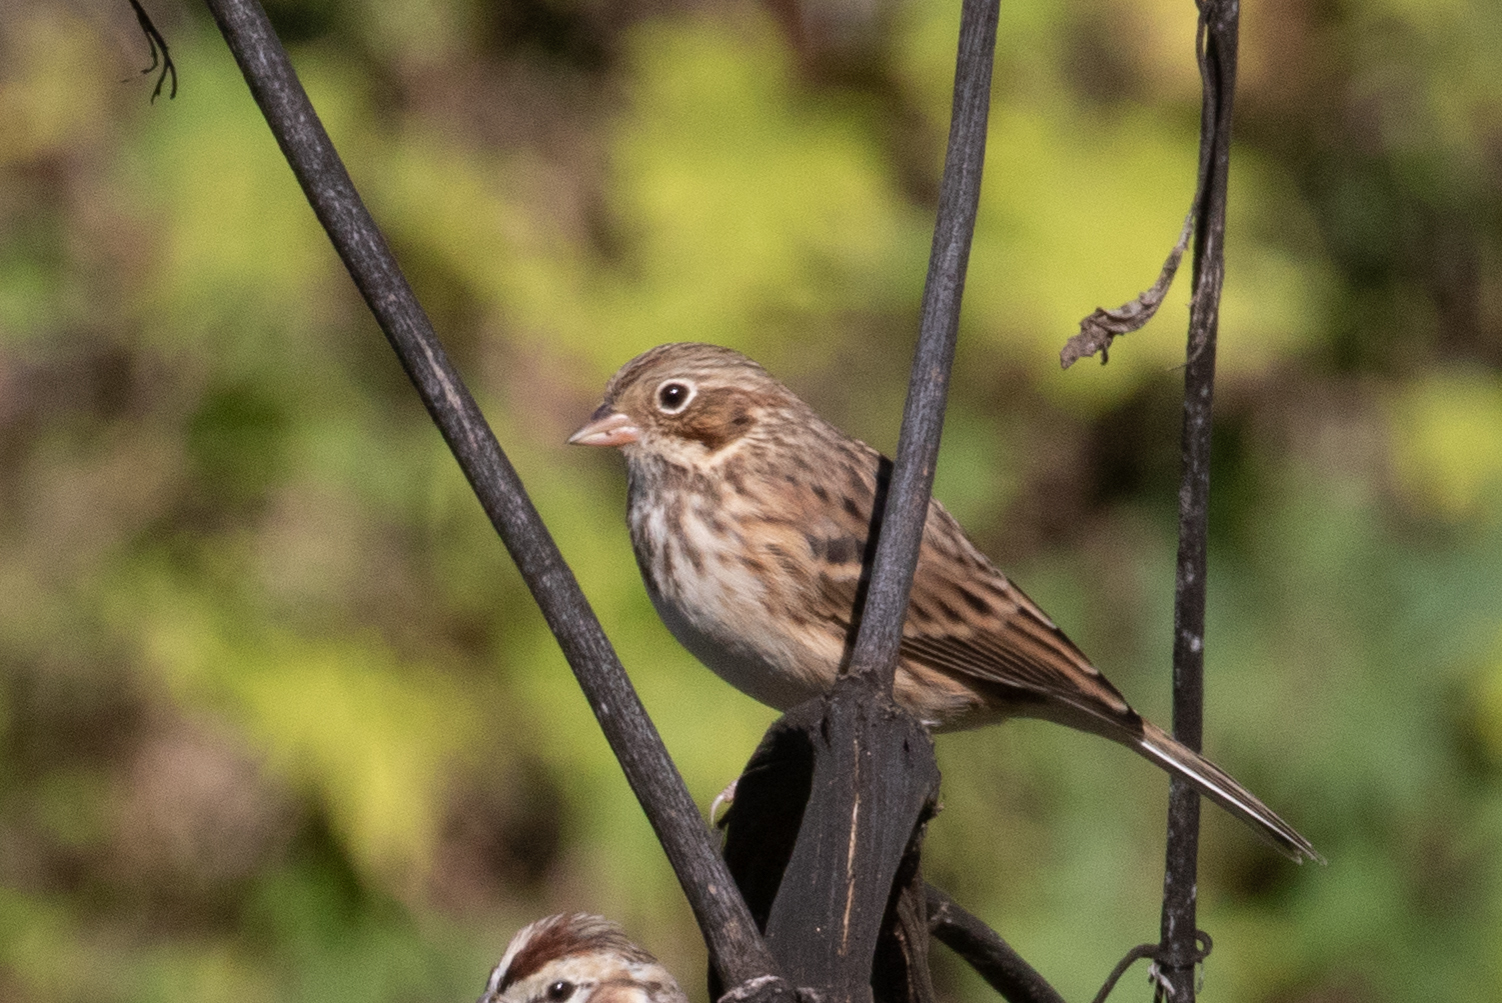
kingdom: Animalia
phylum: Chordata
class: Aves
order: Passeriformes
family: Passerellidae
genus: Pooecetes
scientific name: Pooecetes gramineus
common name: Vesper sparrow
